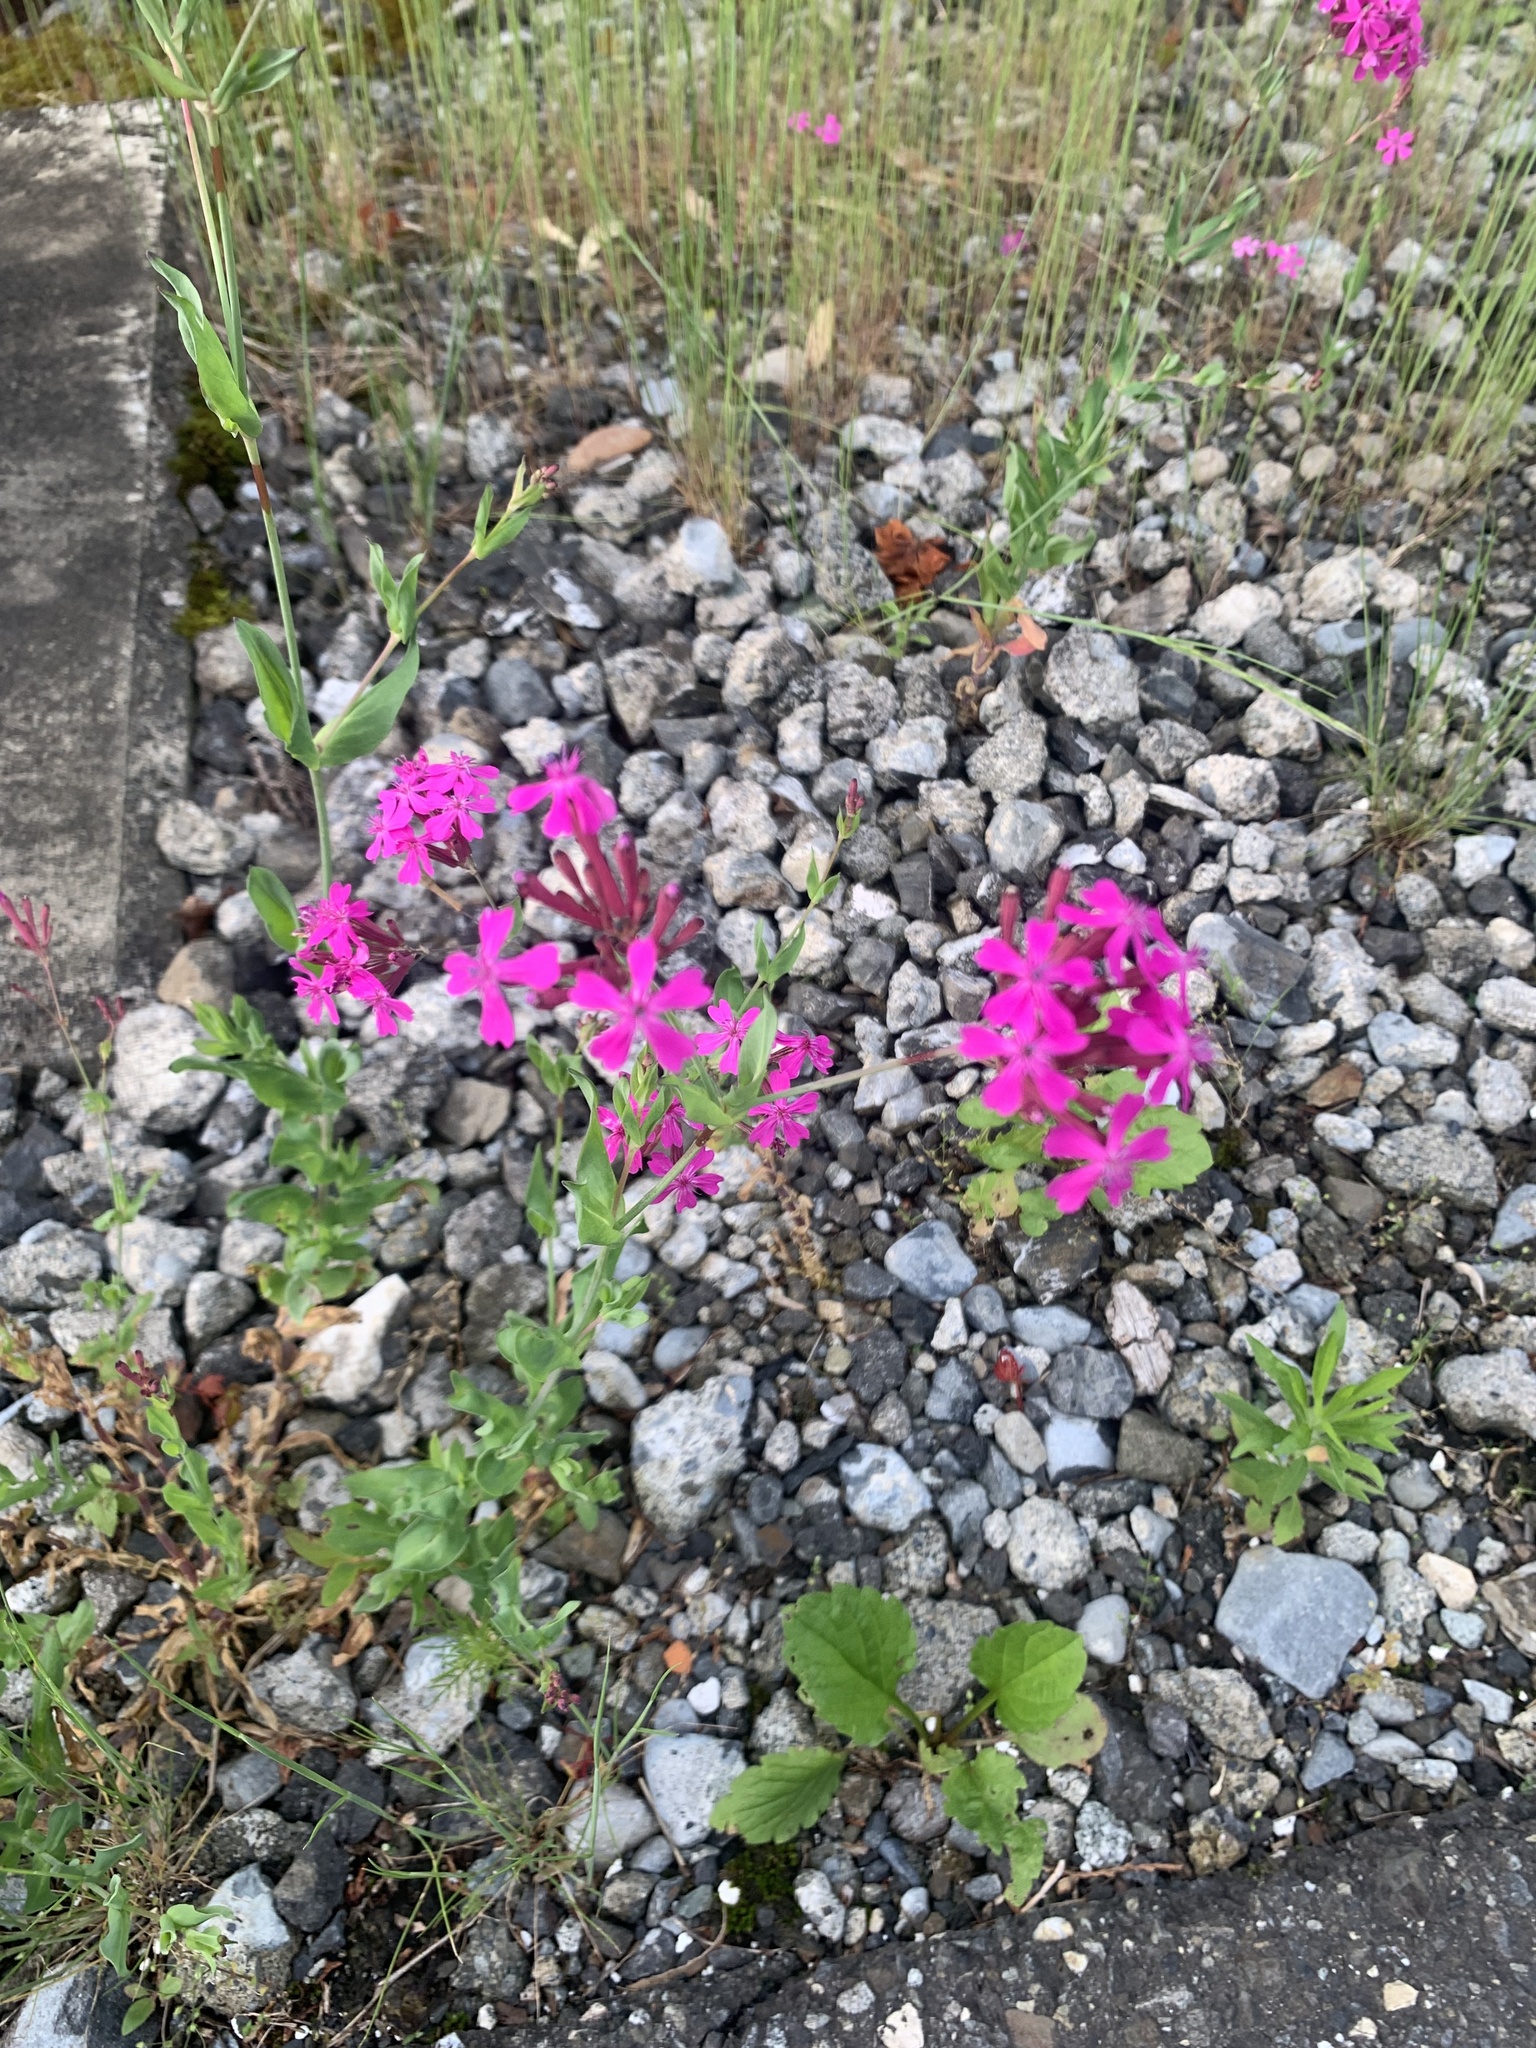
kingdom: Plantae
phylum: Tracheophyta
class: Magnoliopsida
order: Caryophyllales
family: Caryophyllaceae
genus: Atocion
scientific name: Atocion armeria
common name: Sweet william catchfly
